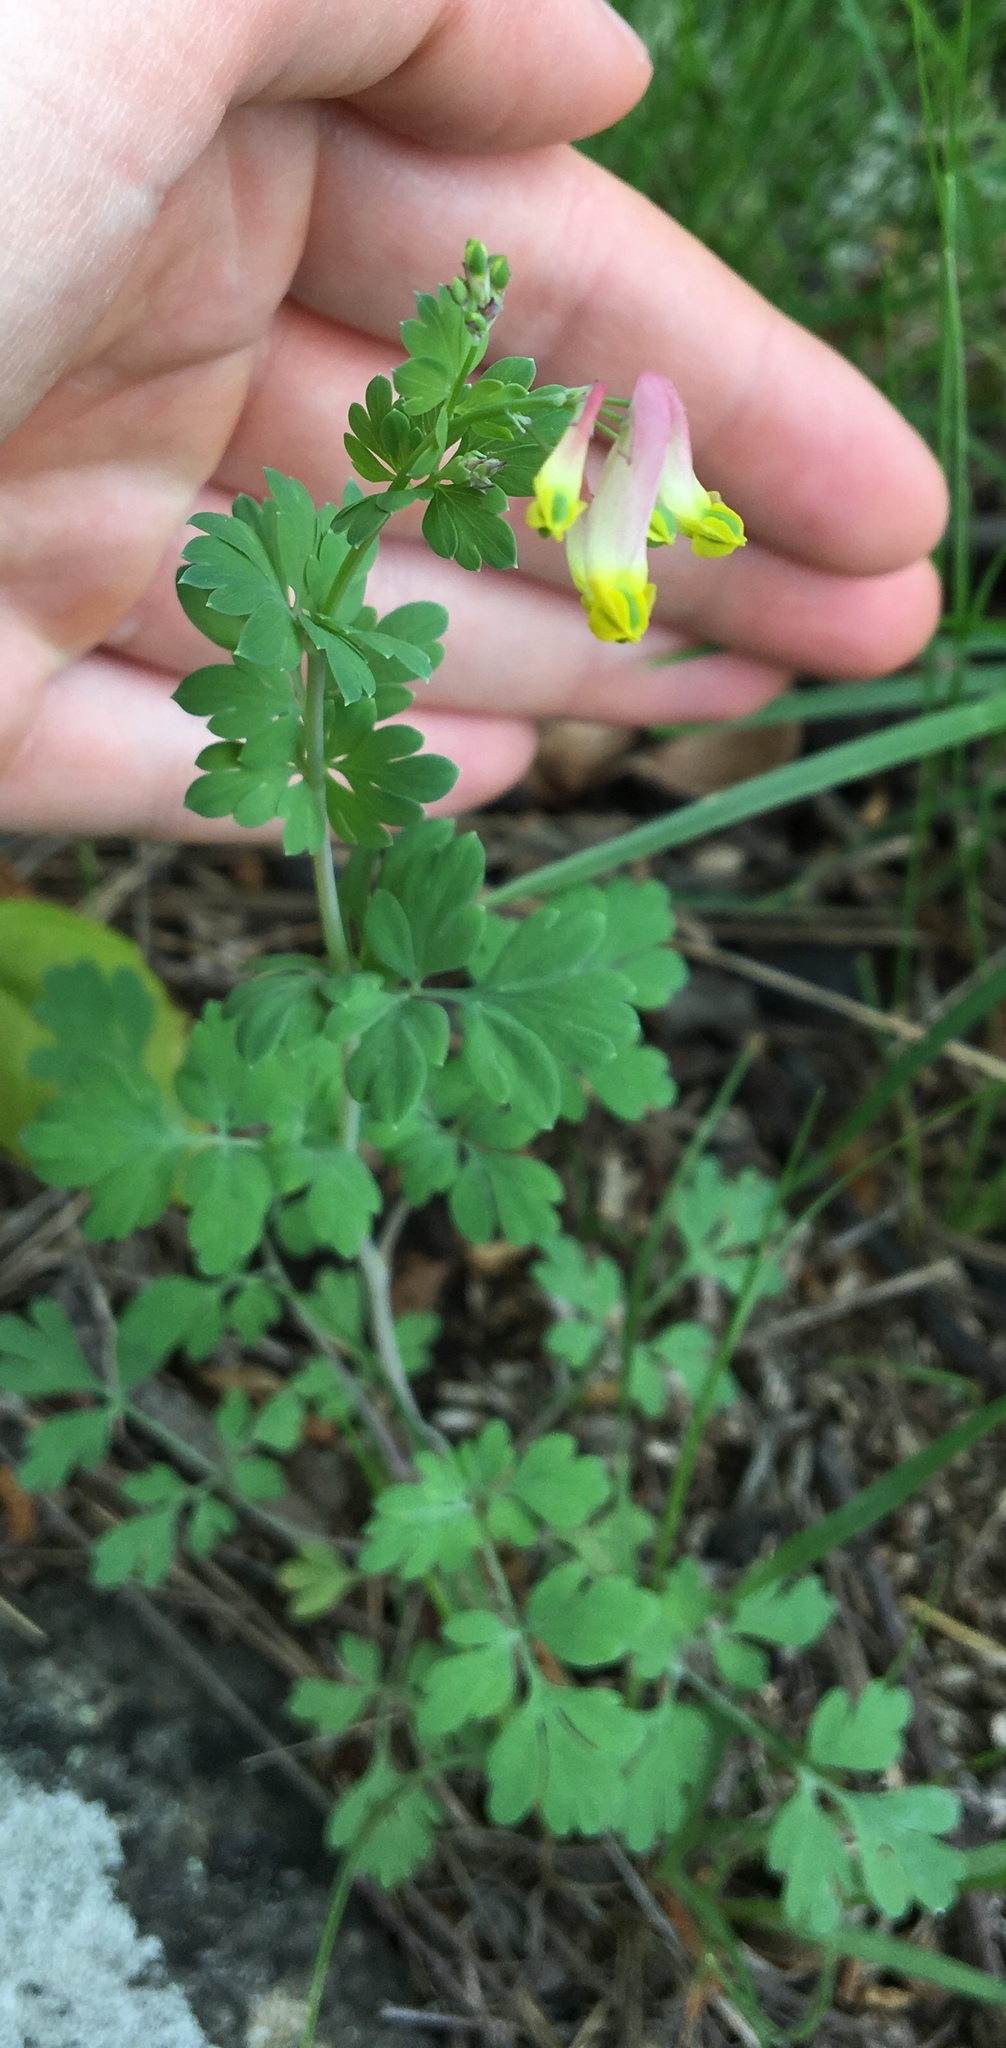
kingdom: Plantae
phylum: Tracheophyta
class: Magnoliopsida
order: Ranunculales
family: Papaveraceae
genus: Capnoides
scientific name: Capnoides sempervirens
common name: Rock harlequin
